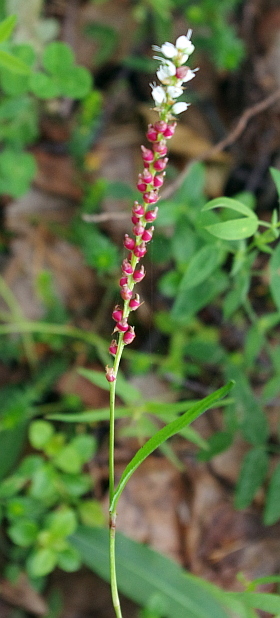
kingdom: Plantae
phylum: Tracheophyta
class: Magnoliopsida
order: Caryophyllales
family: Polygonaceae
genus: Bistorta
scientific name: Bistorta vivipara
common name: Alpine bistort
